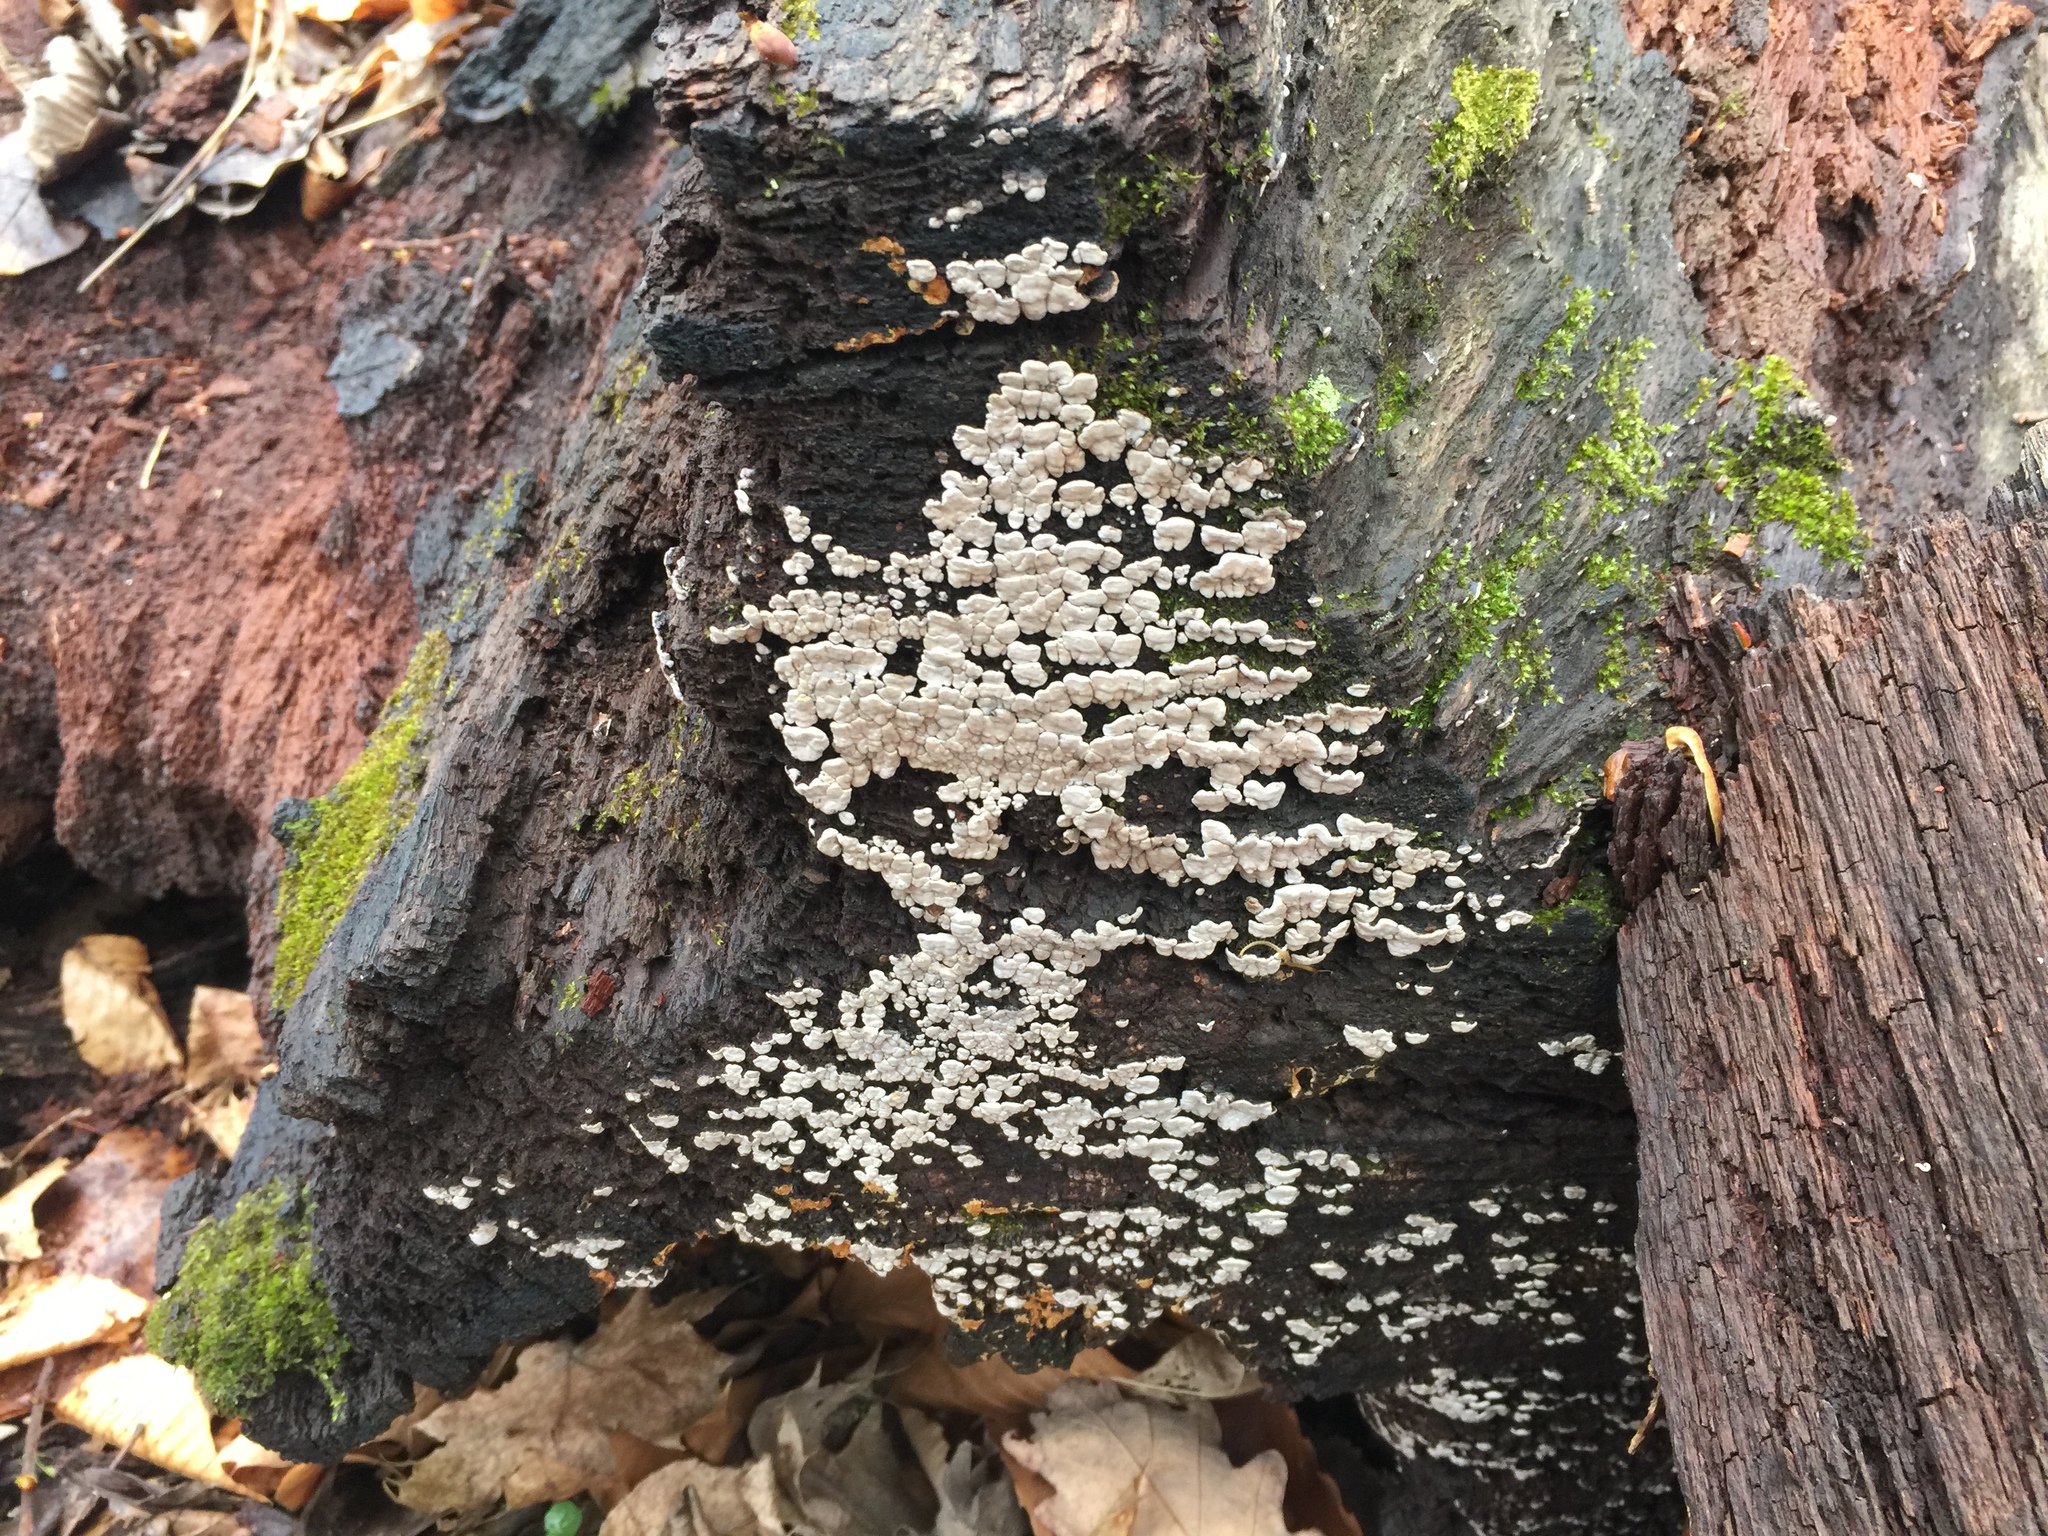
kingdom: Fungi
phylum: Basidiomycota
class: Agaricomycetes
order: Russulales
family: Stereaceae
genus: Xylobolus
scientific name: Xylobolus frustulatus
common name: Ceramic parchment
